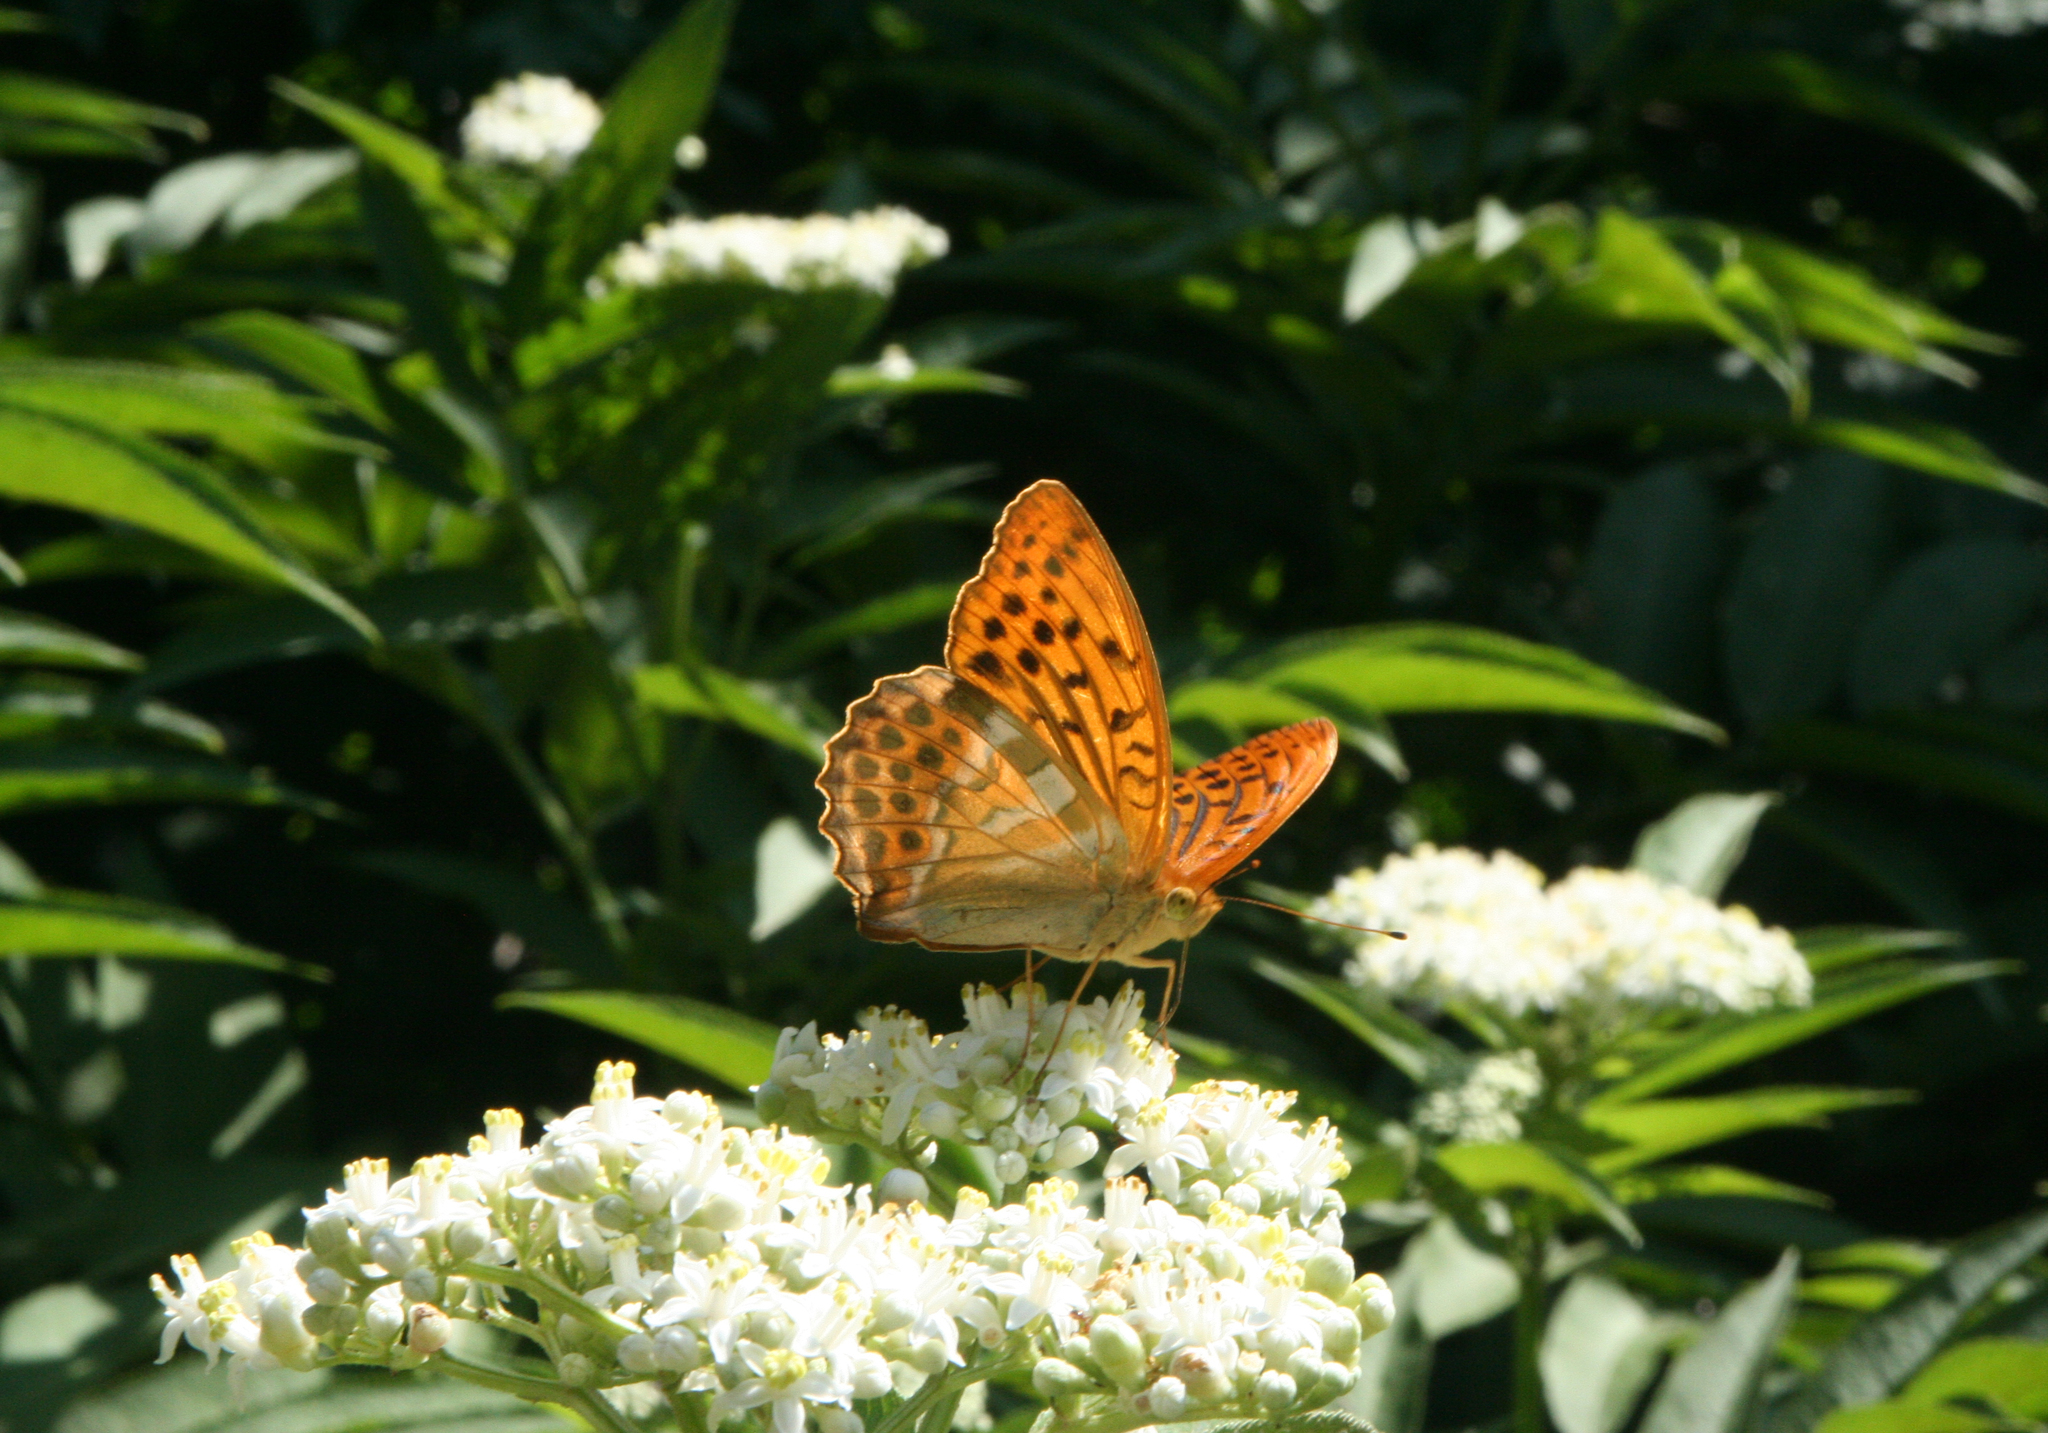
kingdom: Animalia
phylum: Arthropoda
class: Insecta
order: Lepidoptera
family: Nymphalidae
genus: Argynnis
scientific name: Argynnis paphia
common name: Silver-washed fritillary
